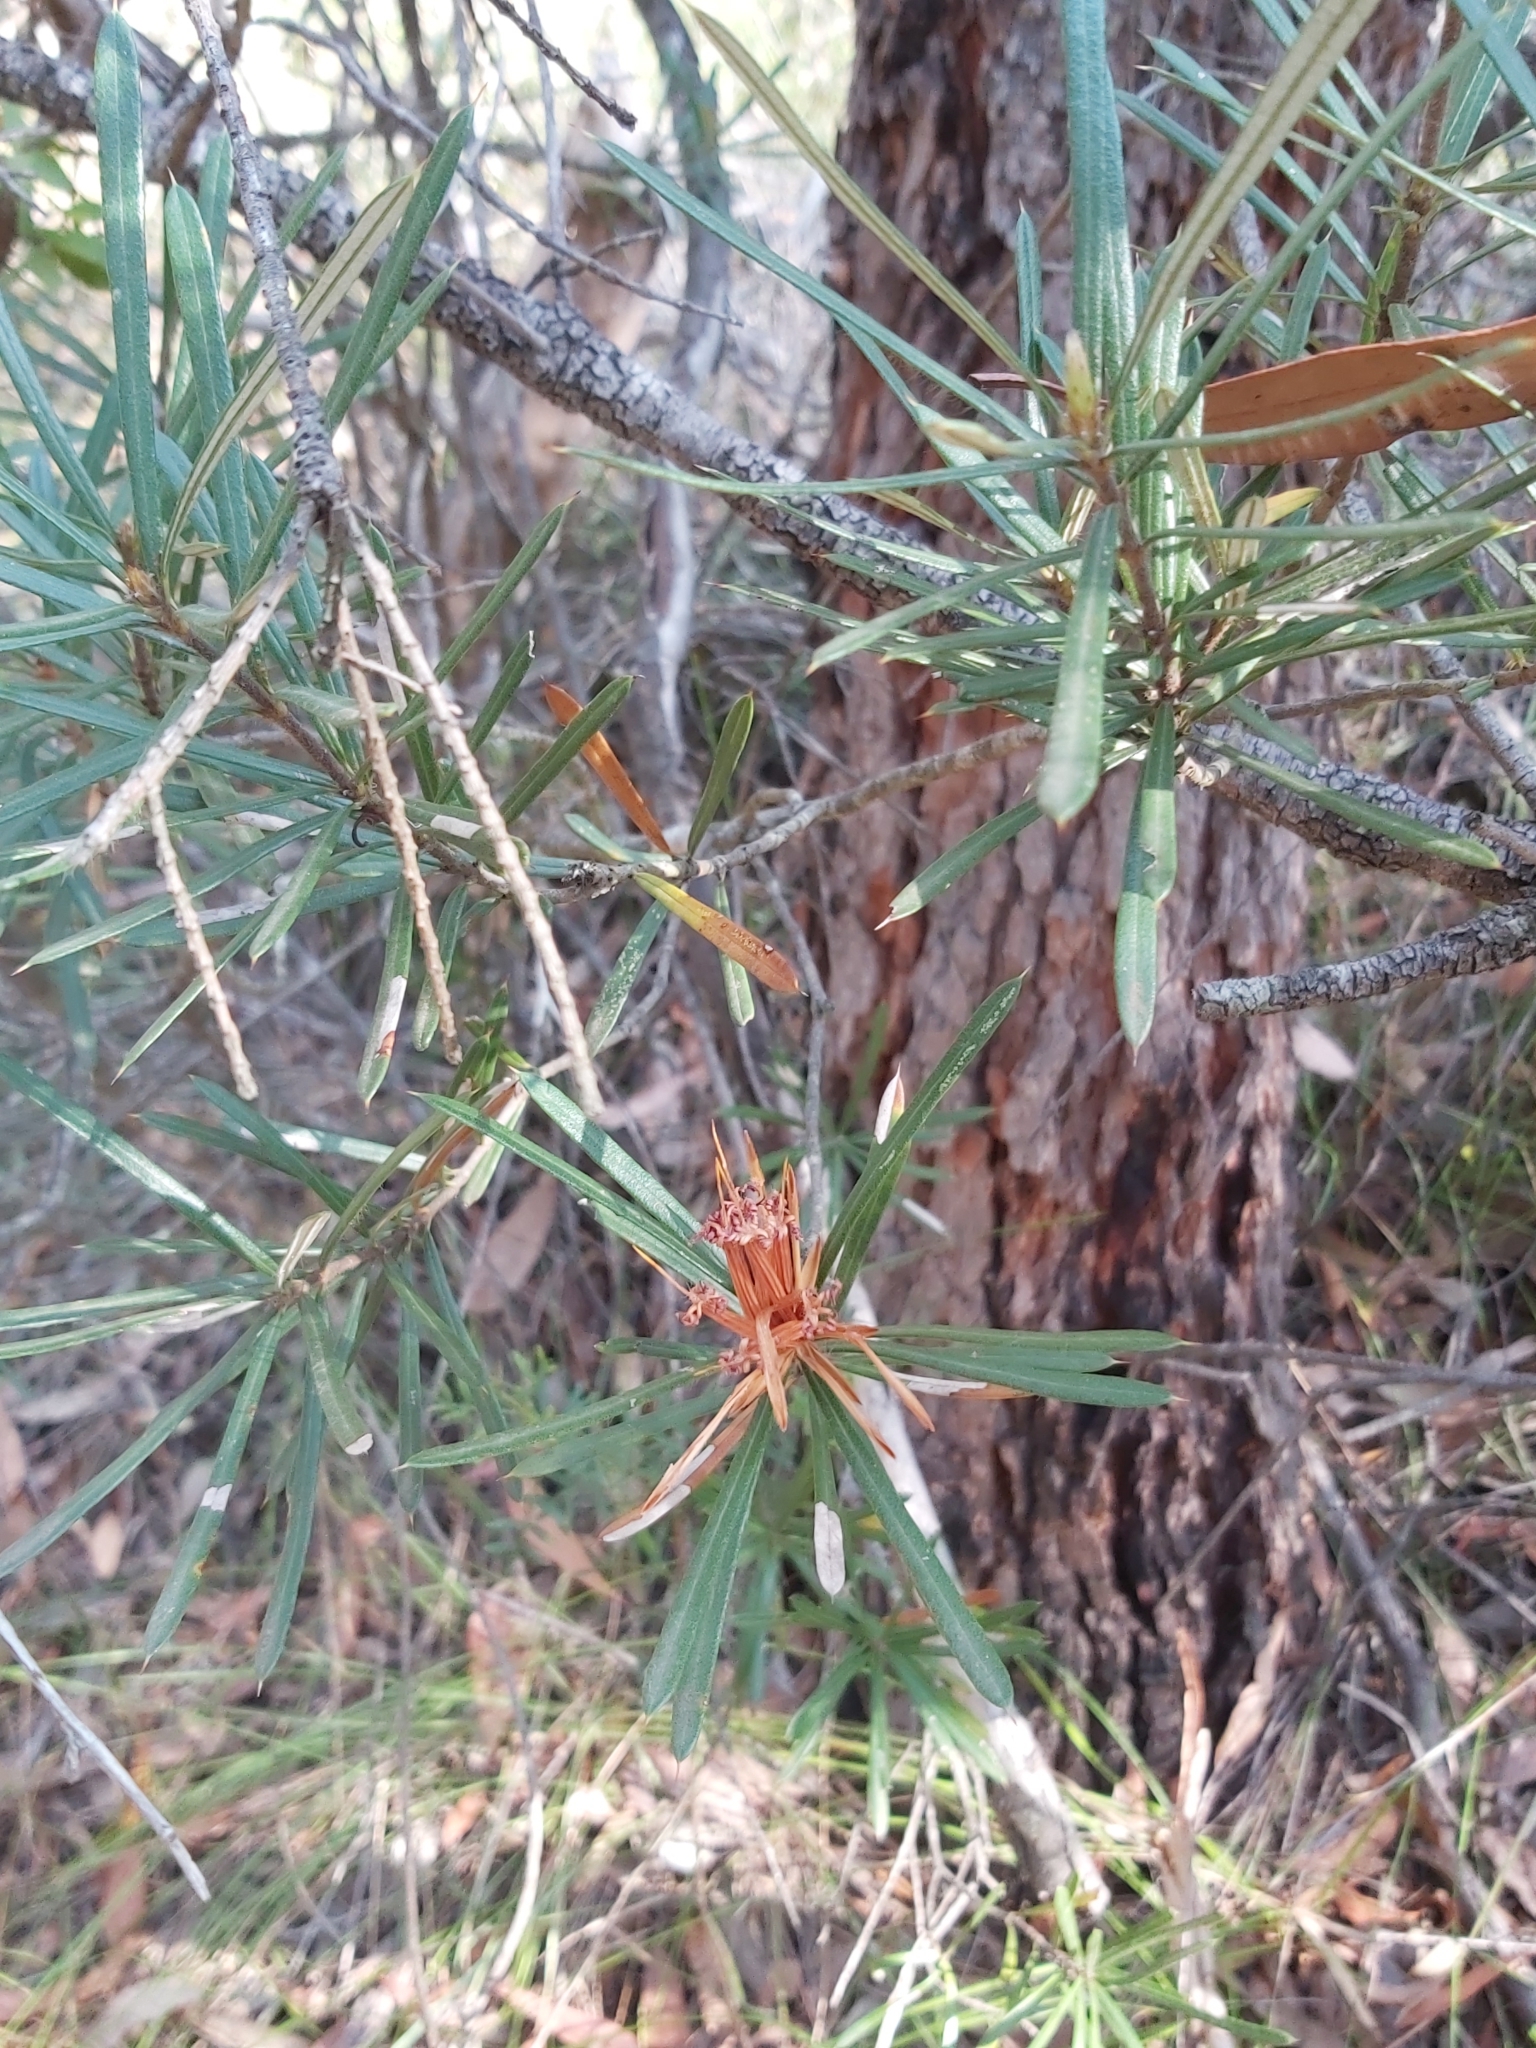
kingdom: Plantae
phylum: Tracheophyta
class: Magnoliopsida
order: Proteales
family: Proteaceae
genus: Lambertia
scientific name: Lambertia formosa
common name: Mountain-devil
